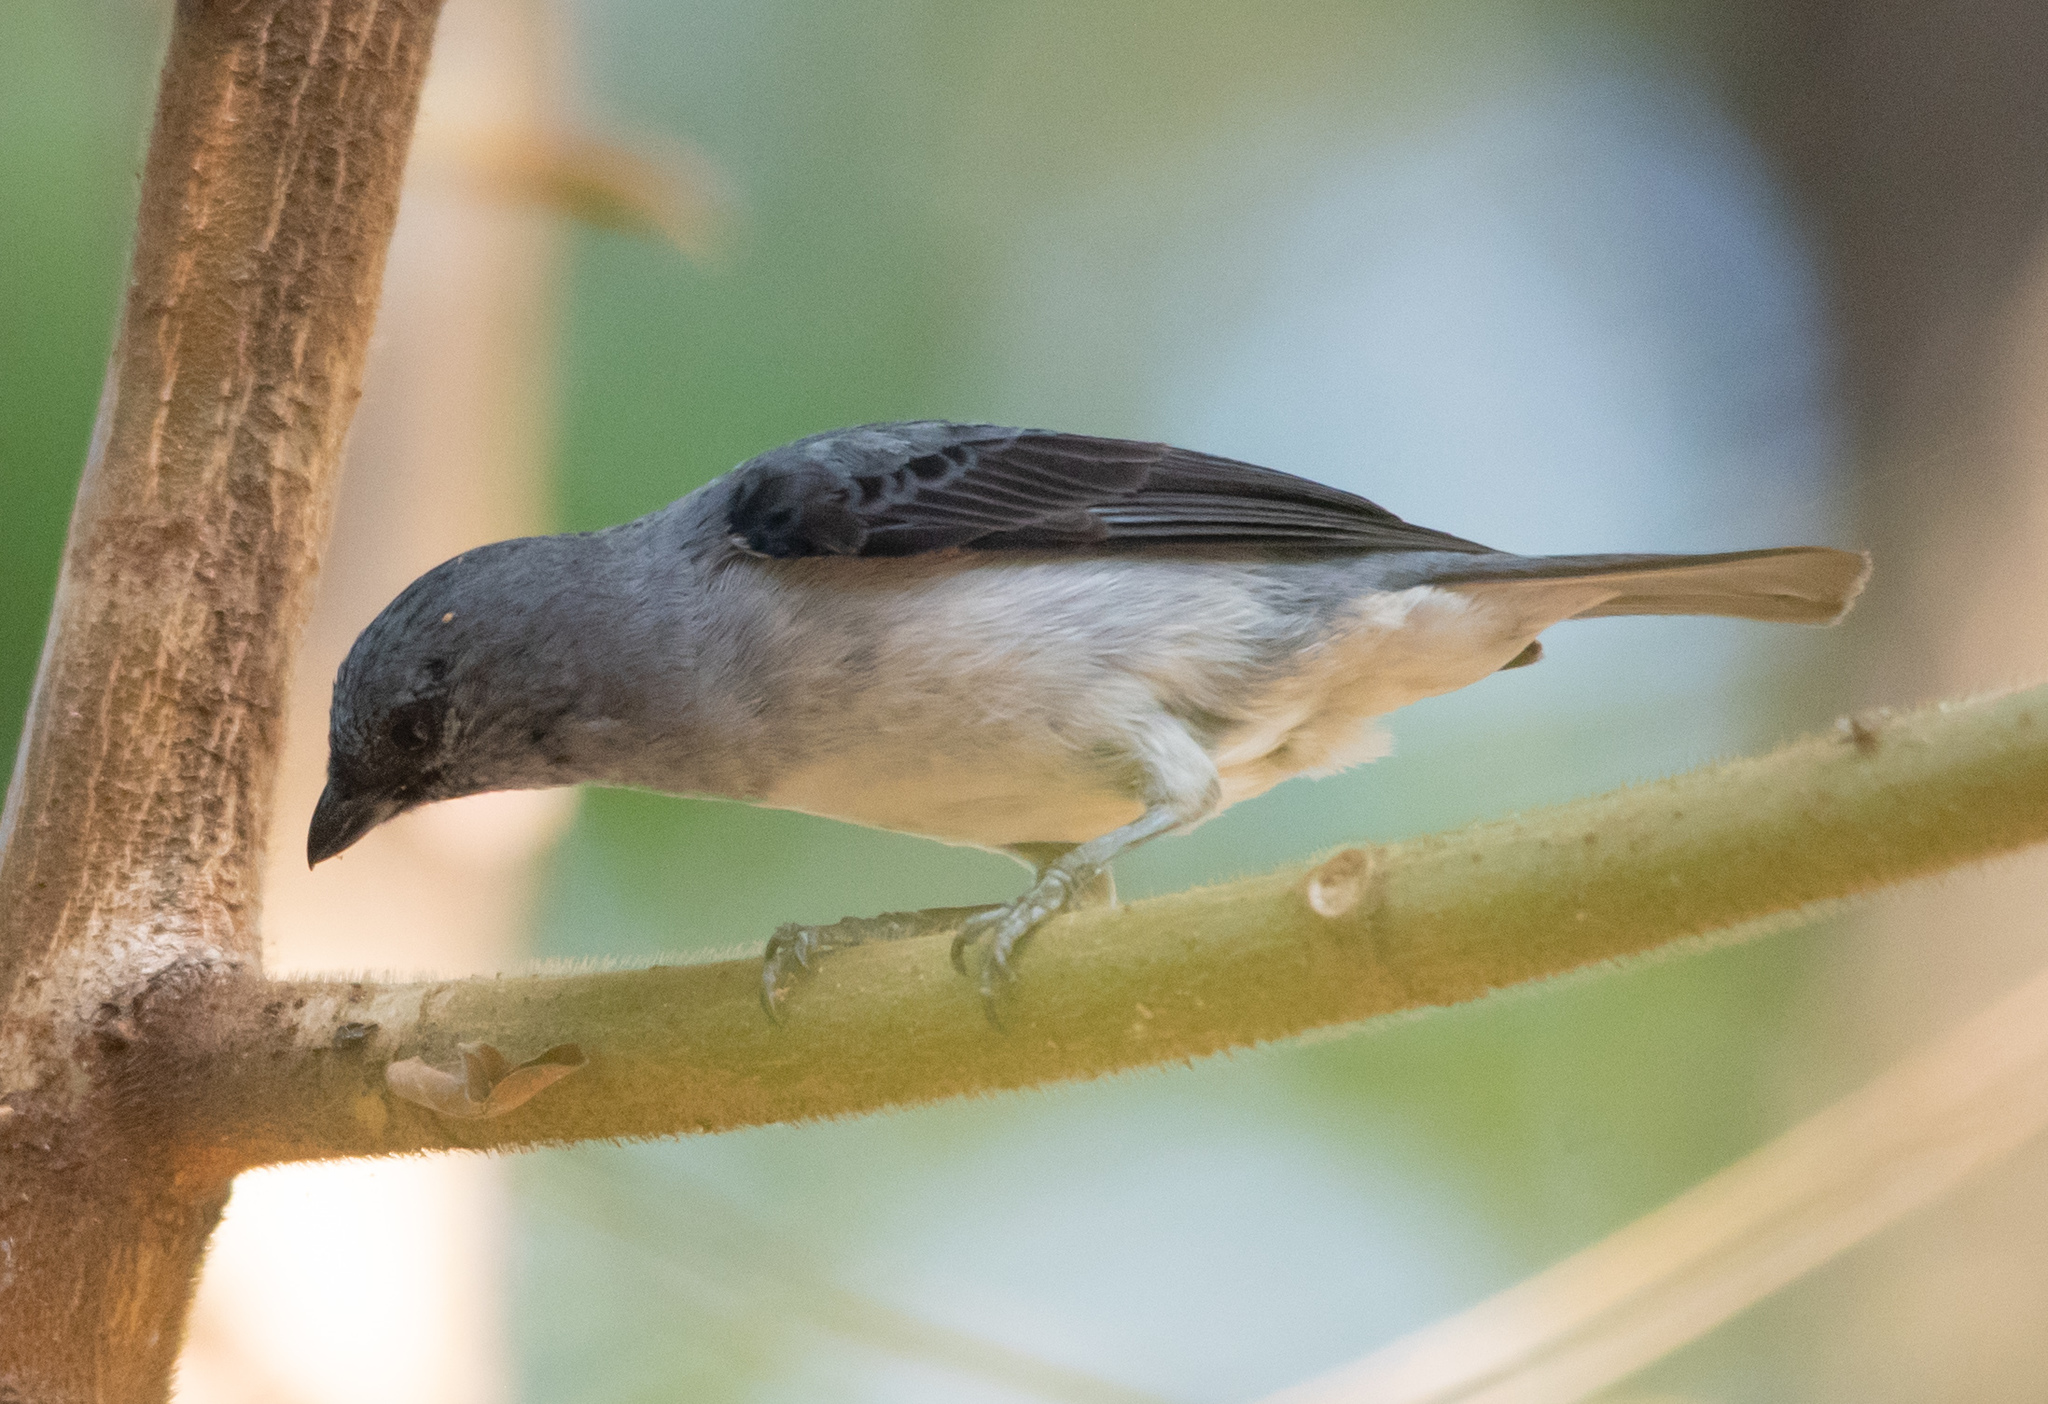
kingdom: Animalia
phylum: Chordata
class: Aves
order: Passeriformes
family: Thraupidae
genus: Tangara
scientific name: Tangara inornata
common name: Plain-colored tanager
